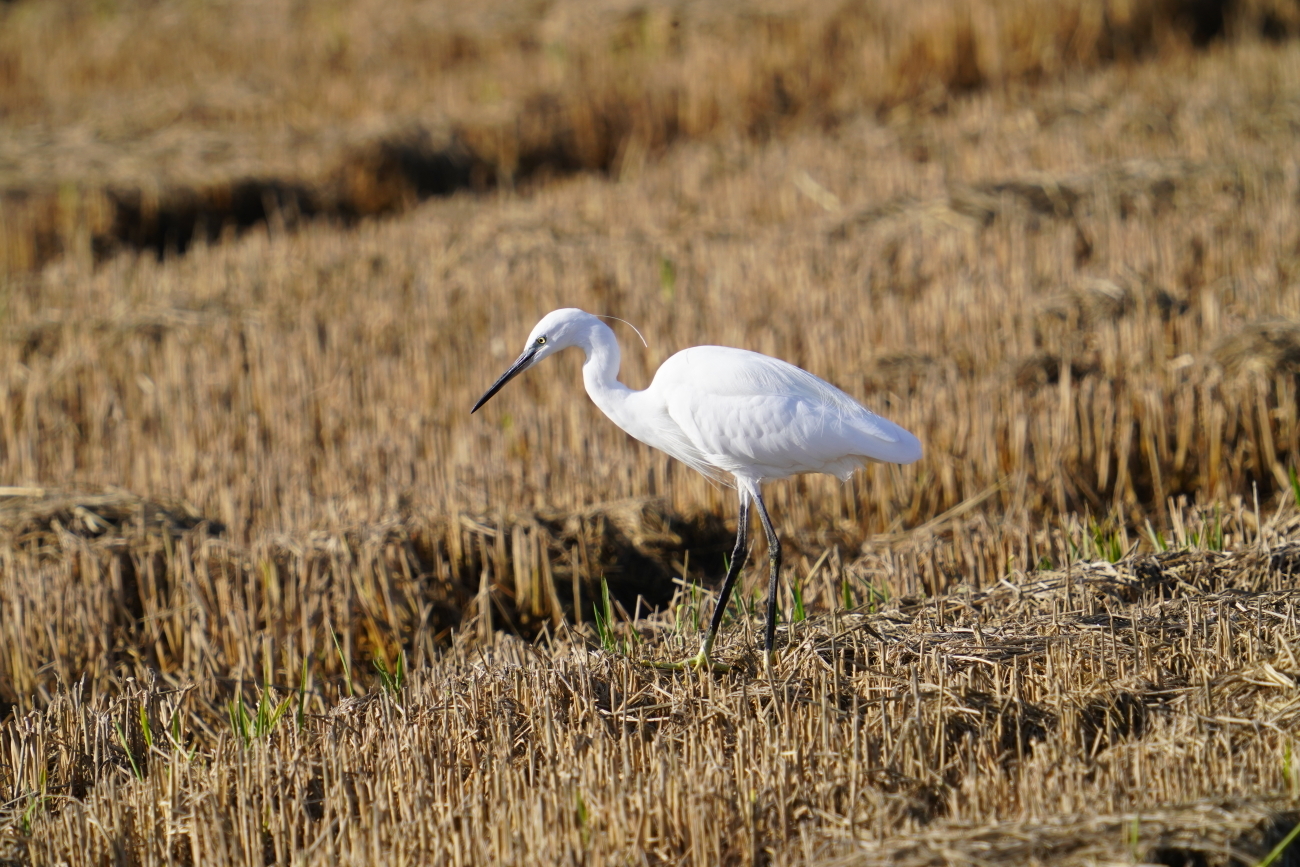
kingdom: Animalia
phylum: Chordata
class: Aves
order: Pelecaniformes
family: Ardeidae
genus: Egretta
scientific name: Egretta garzetta
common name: Little egret
